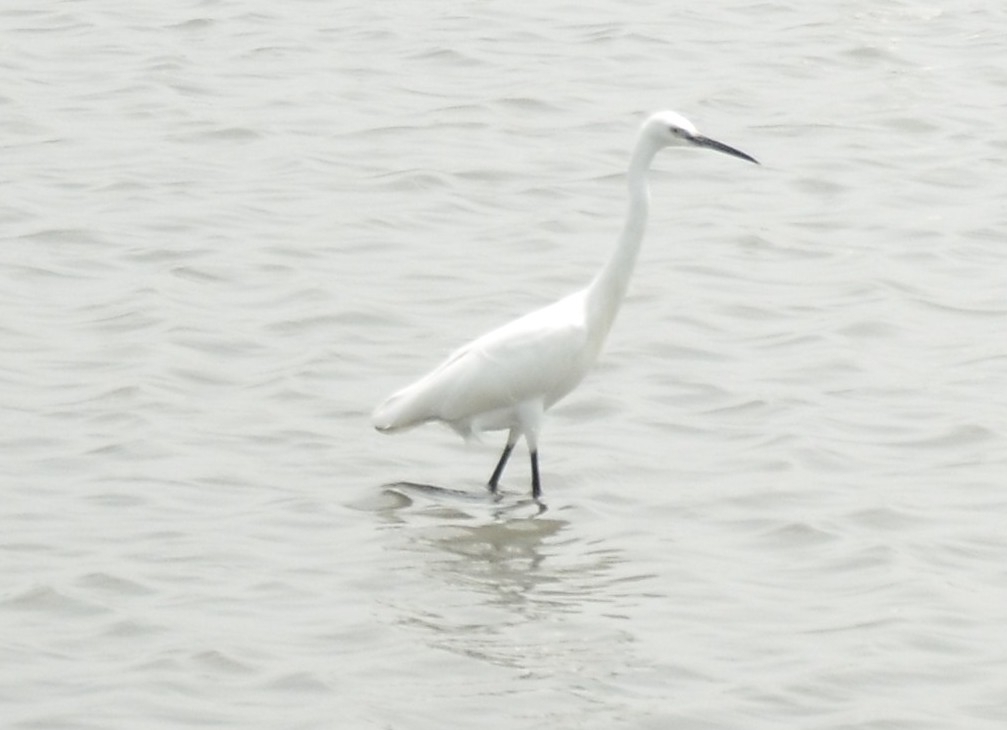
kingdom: Animalia
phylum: Chordata
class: Aves
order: Pelecaniformes
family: Ardeidae
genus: Egretta
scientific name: Egretta garzetta
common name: Little egret
